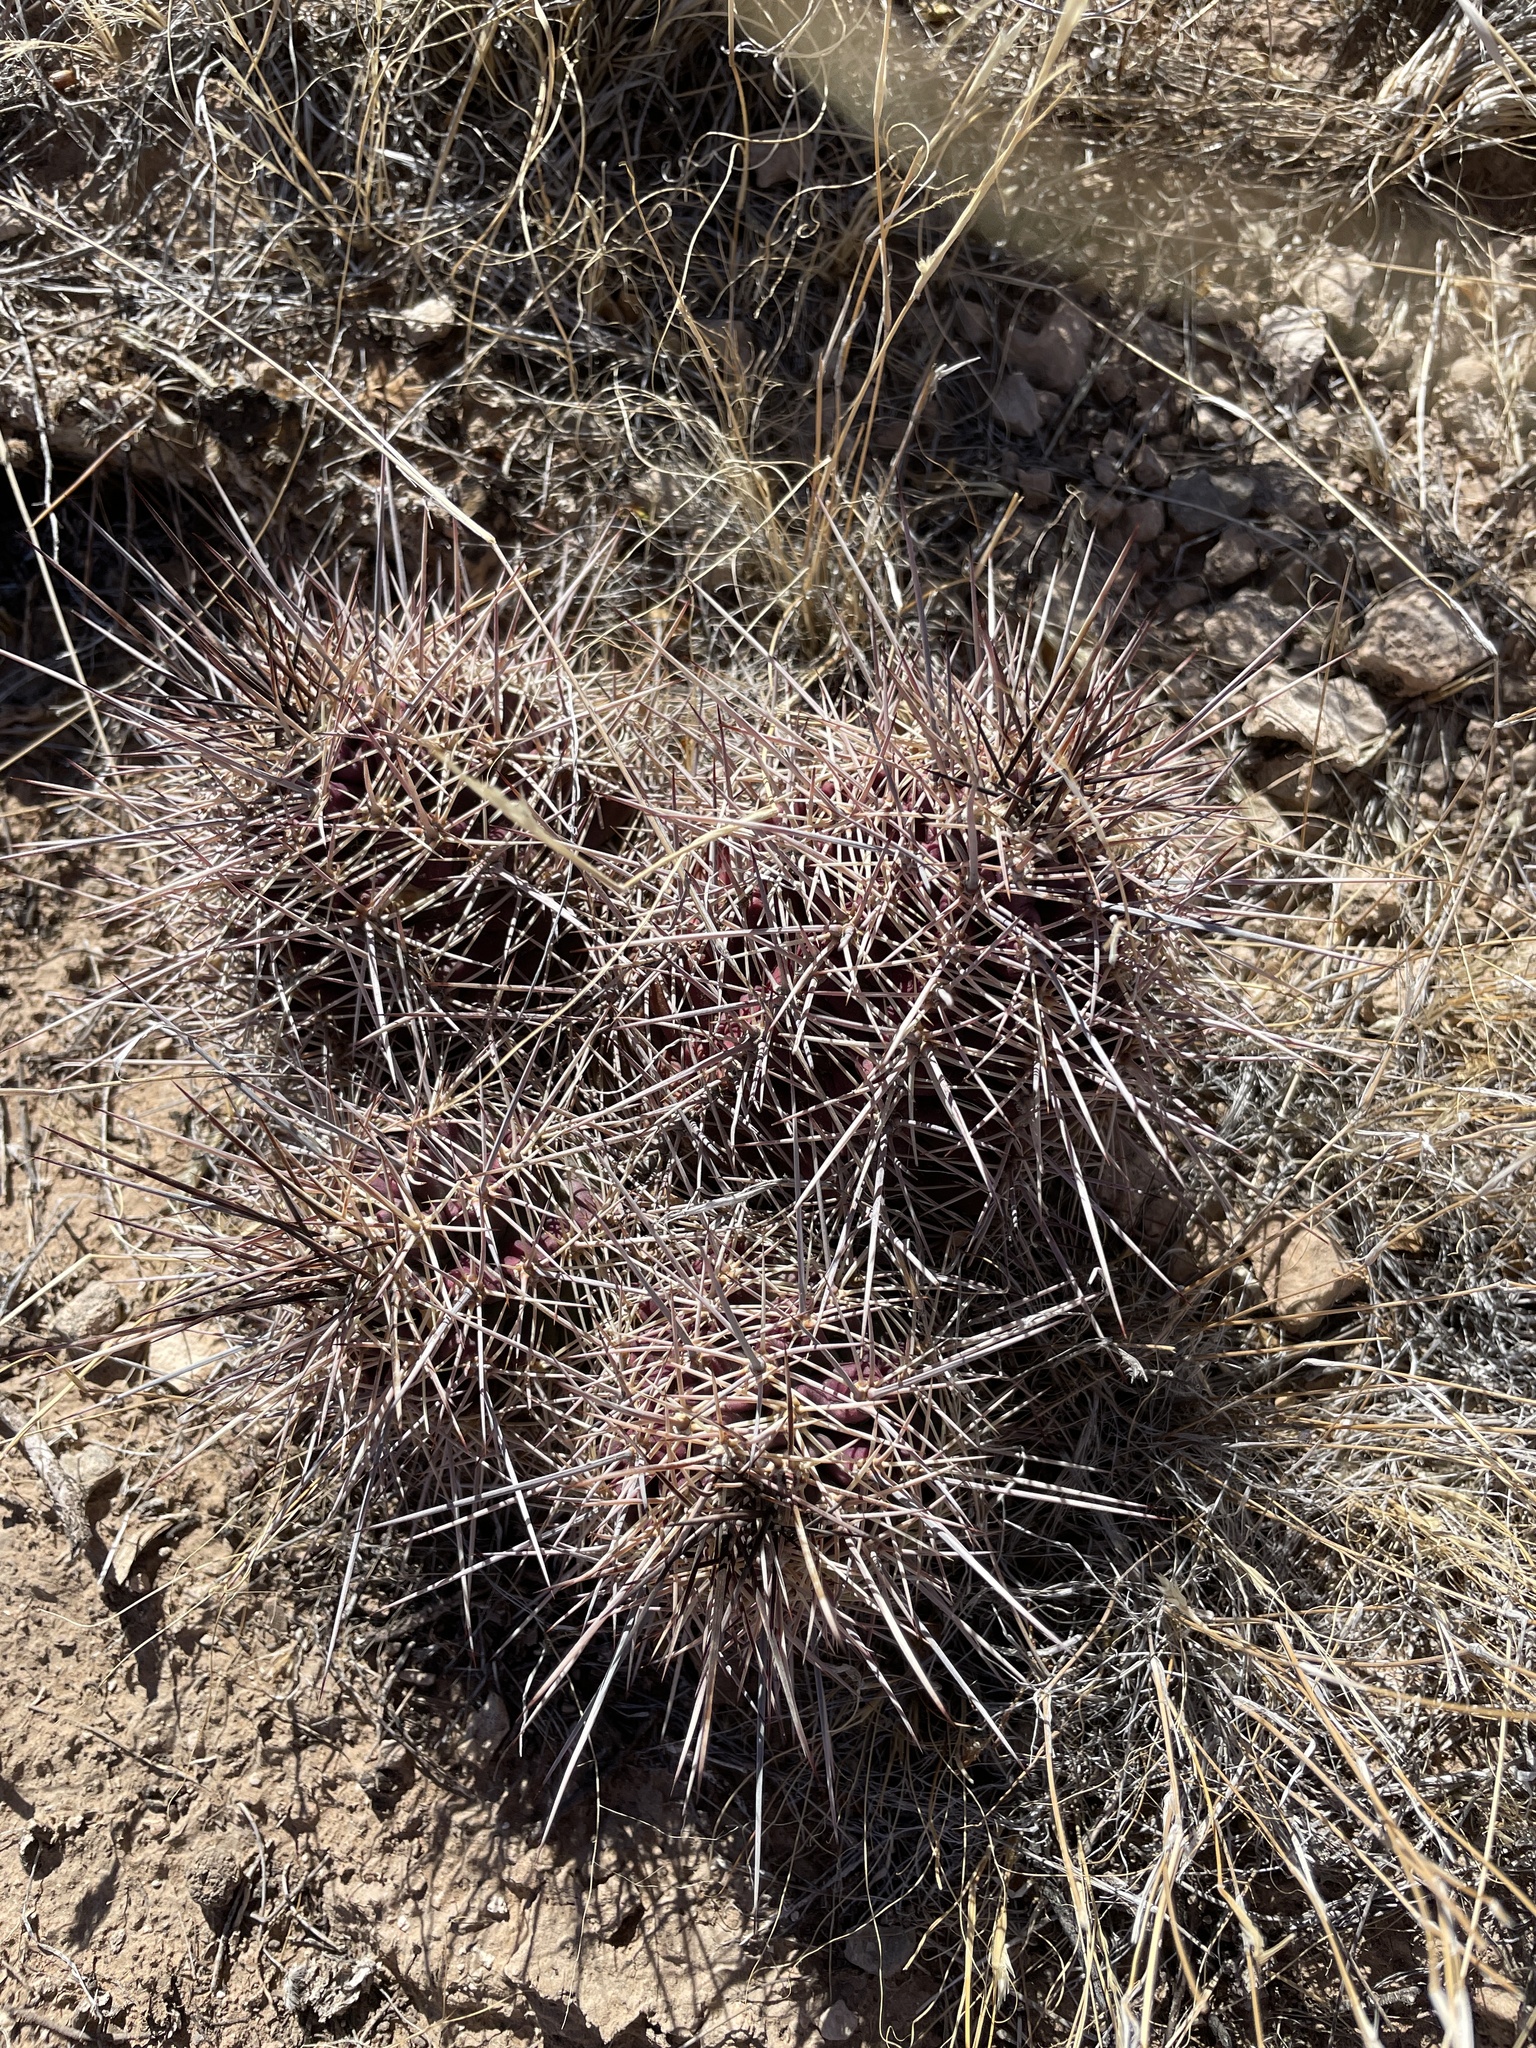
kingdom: Plantae
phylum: Tracheophyta
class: Magnoliopsida
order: Caryophyllales
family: Cactaceae
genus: Echinocereus
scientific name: Echinocereus coccineus
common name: Scarlet hedgehog cactus
